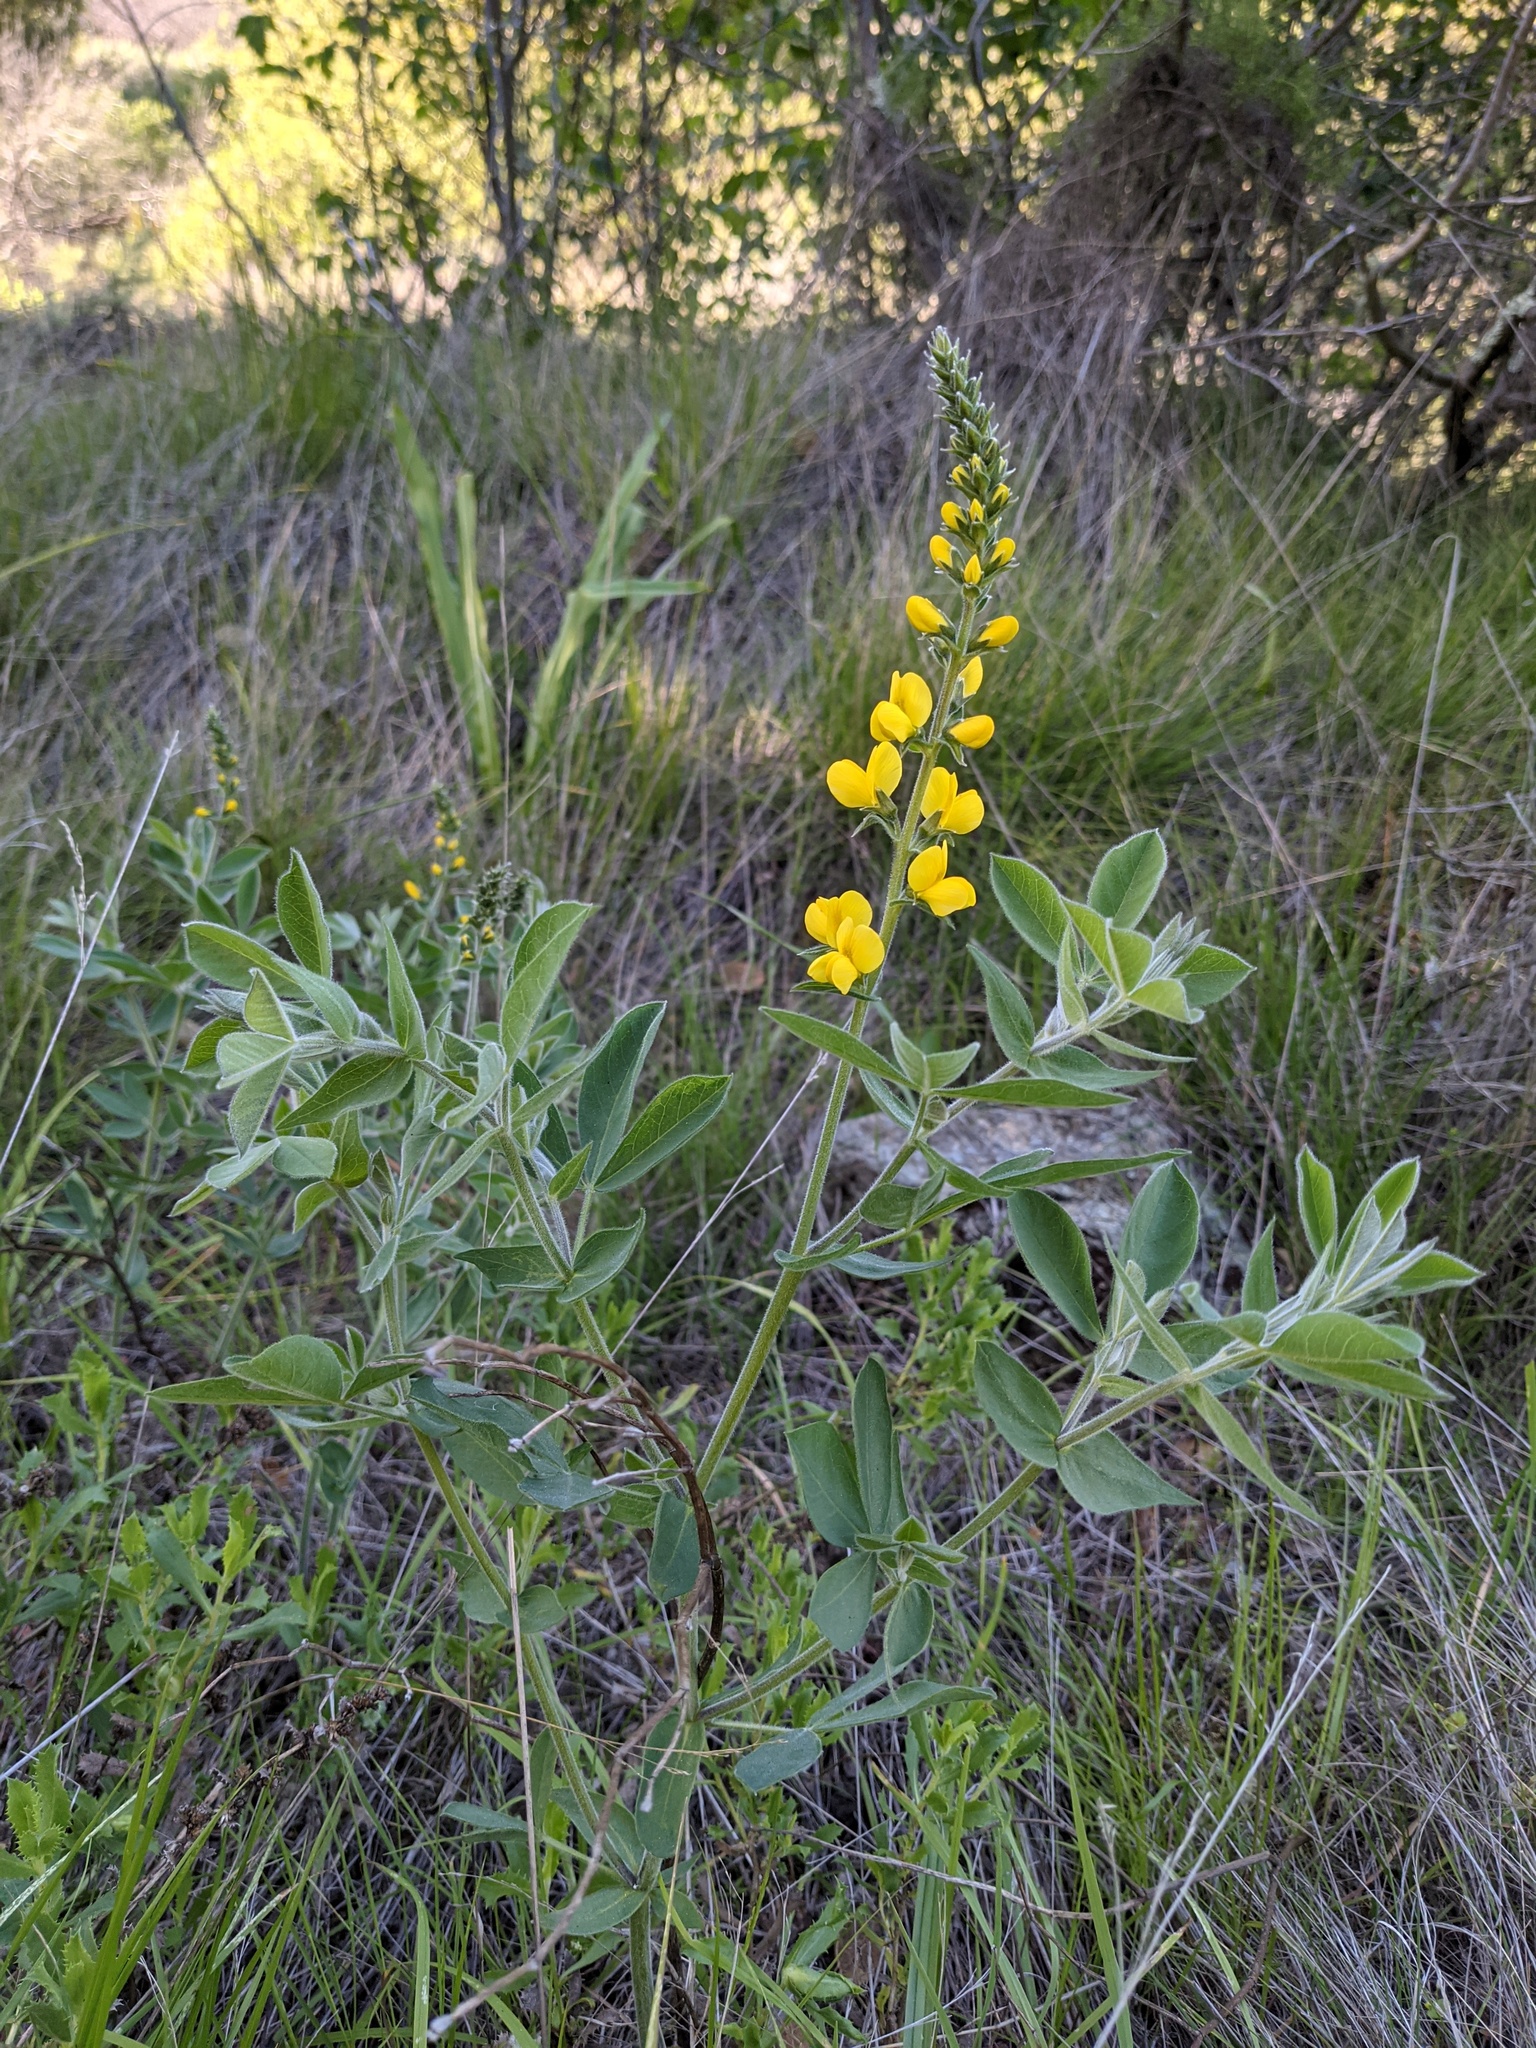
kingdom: Plantae
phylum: Tracheophyta
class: Magnoliopsida
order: Fabales
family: Fabaceae
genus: Thermopsis
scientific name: Thermopsis californica
